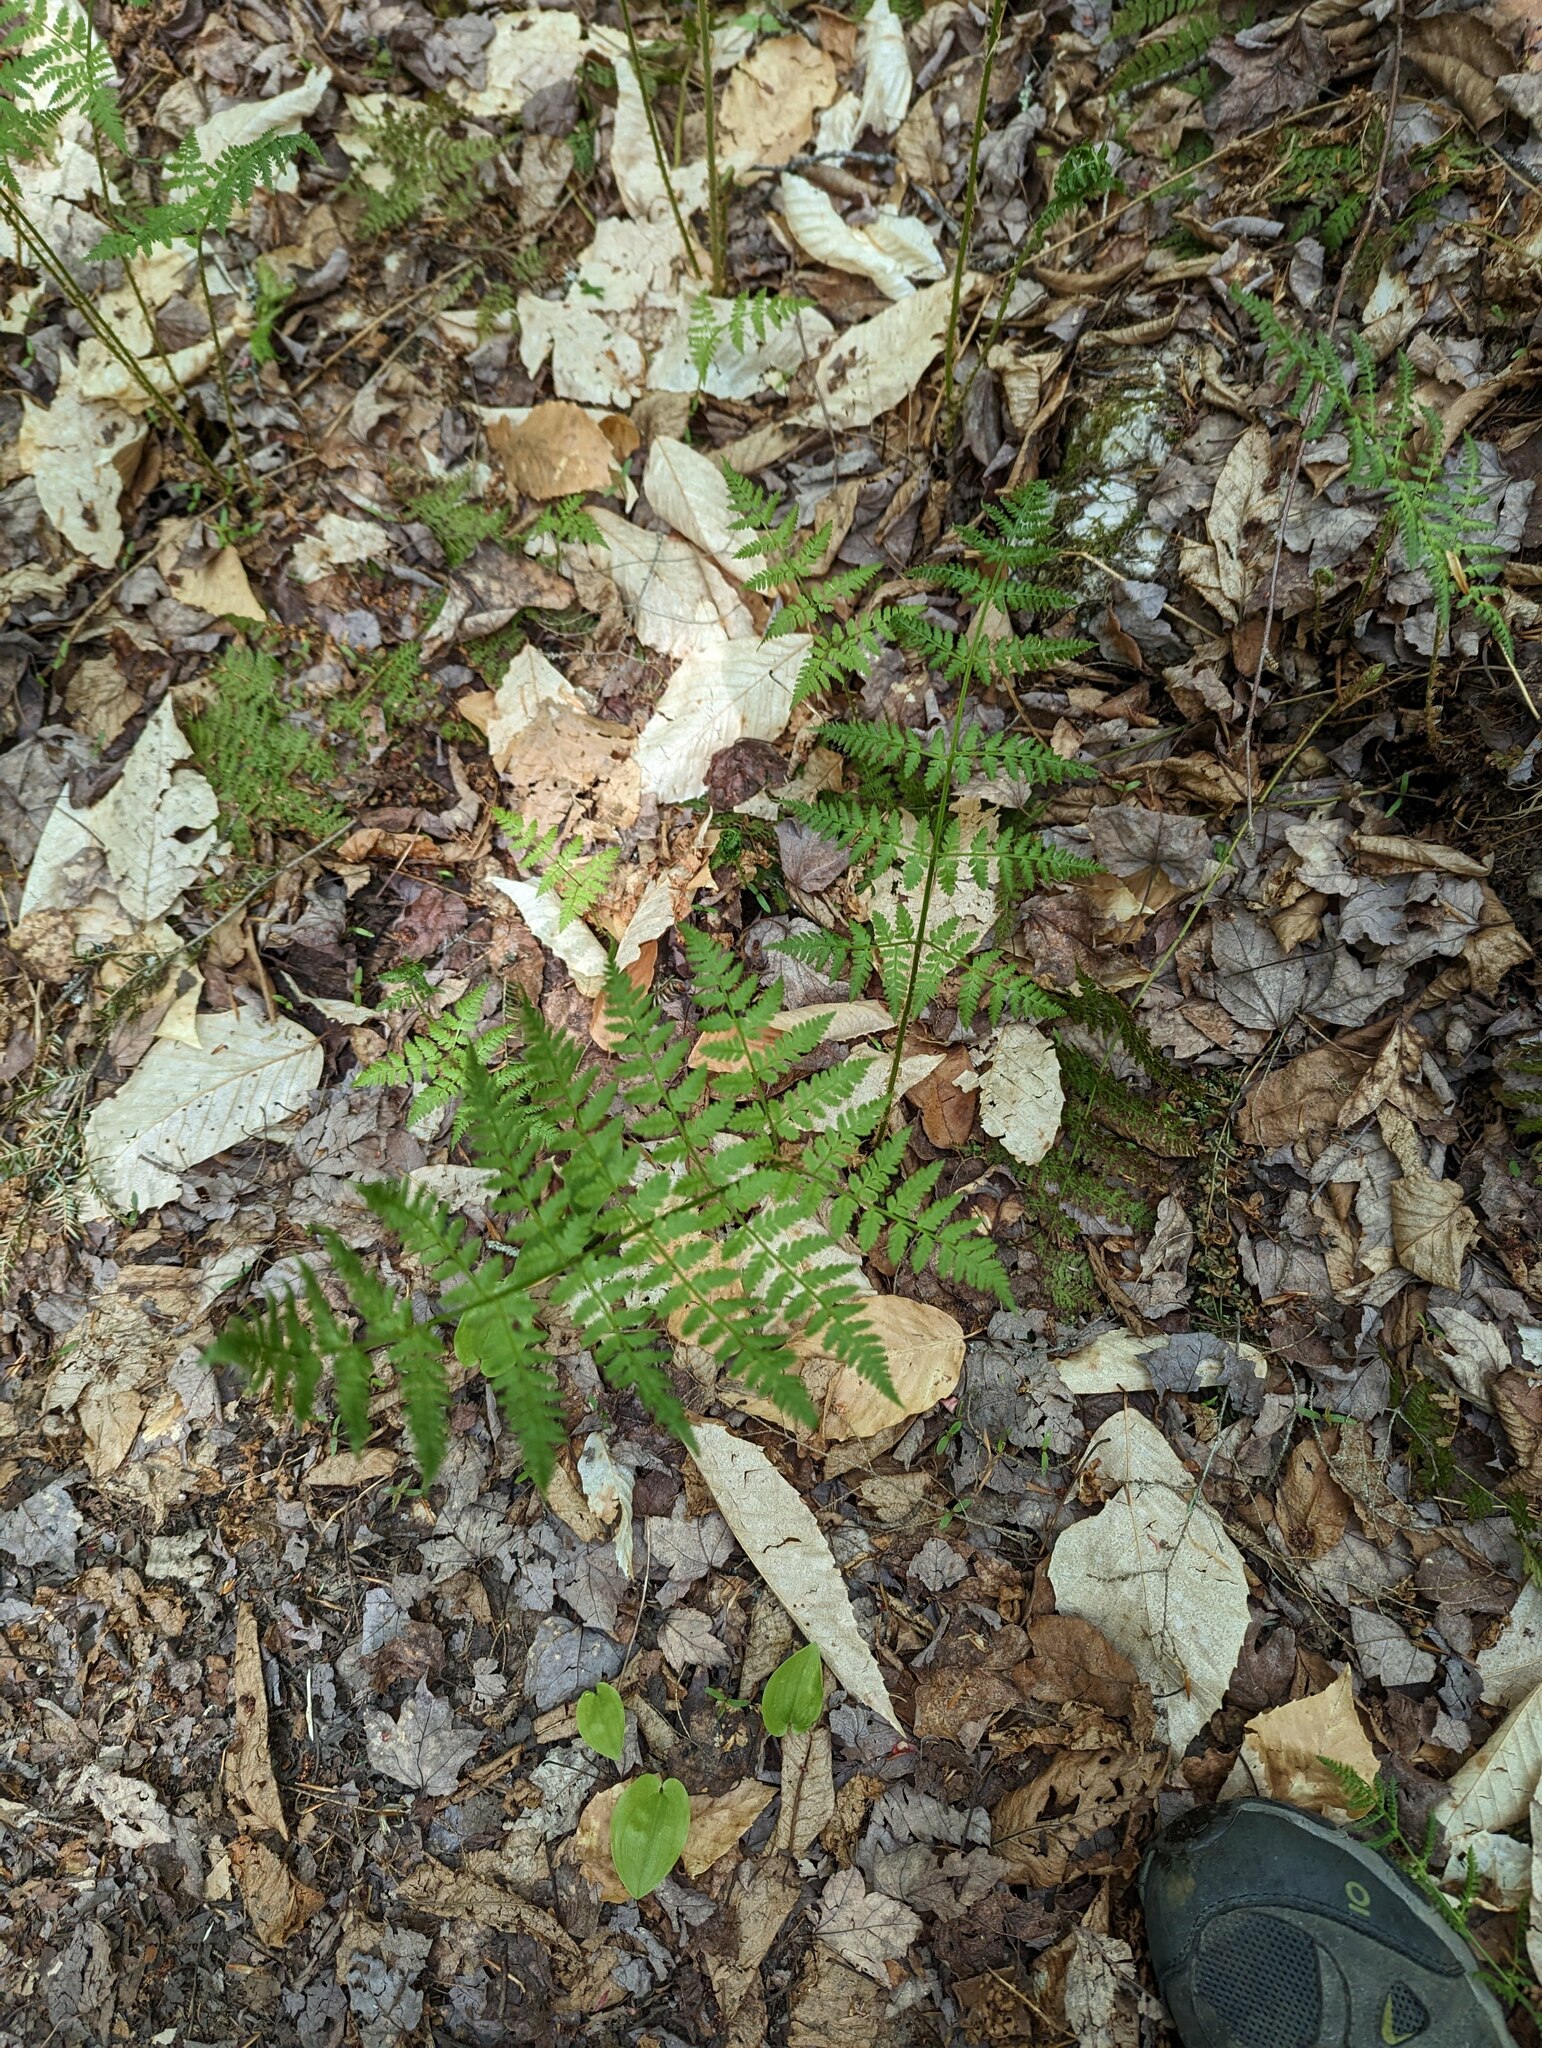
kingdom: Plantae
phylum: Tracheophyta
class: Polypodiopsida
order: Polypodiales
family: Dryopteridaceae
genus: Dryopteris
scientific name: Dryopteris intermedia
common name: Evergreen wood fern
